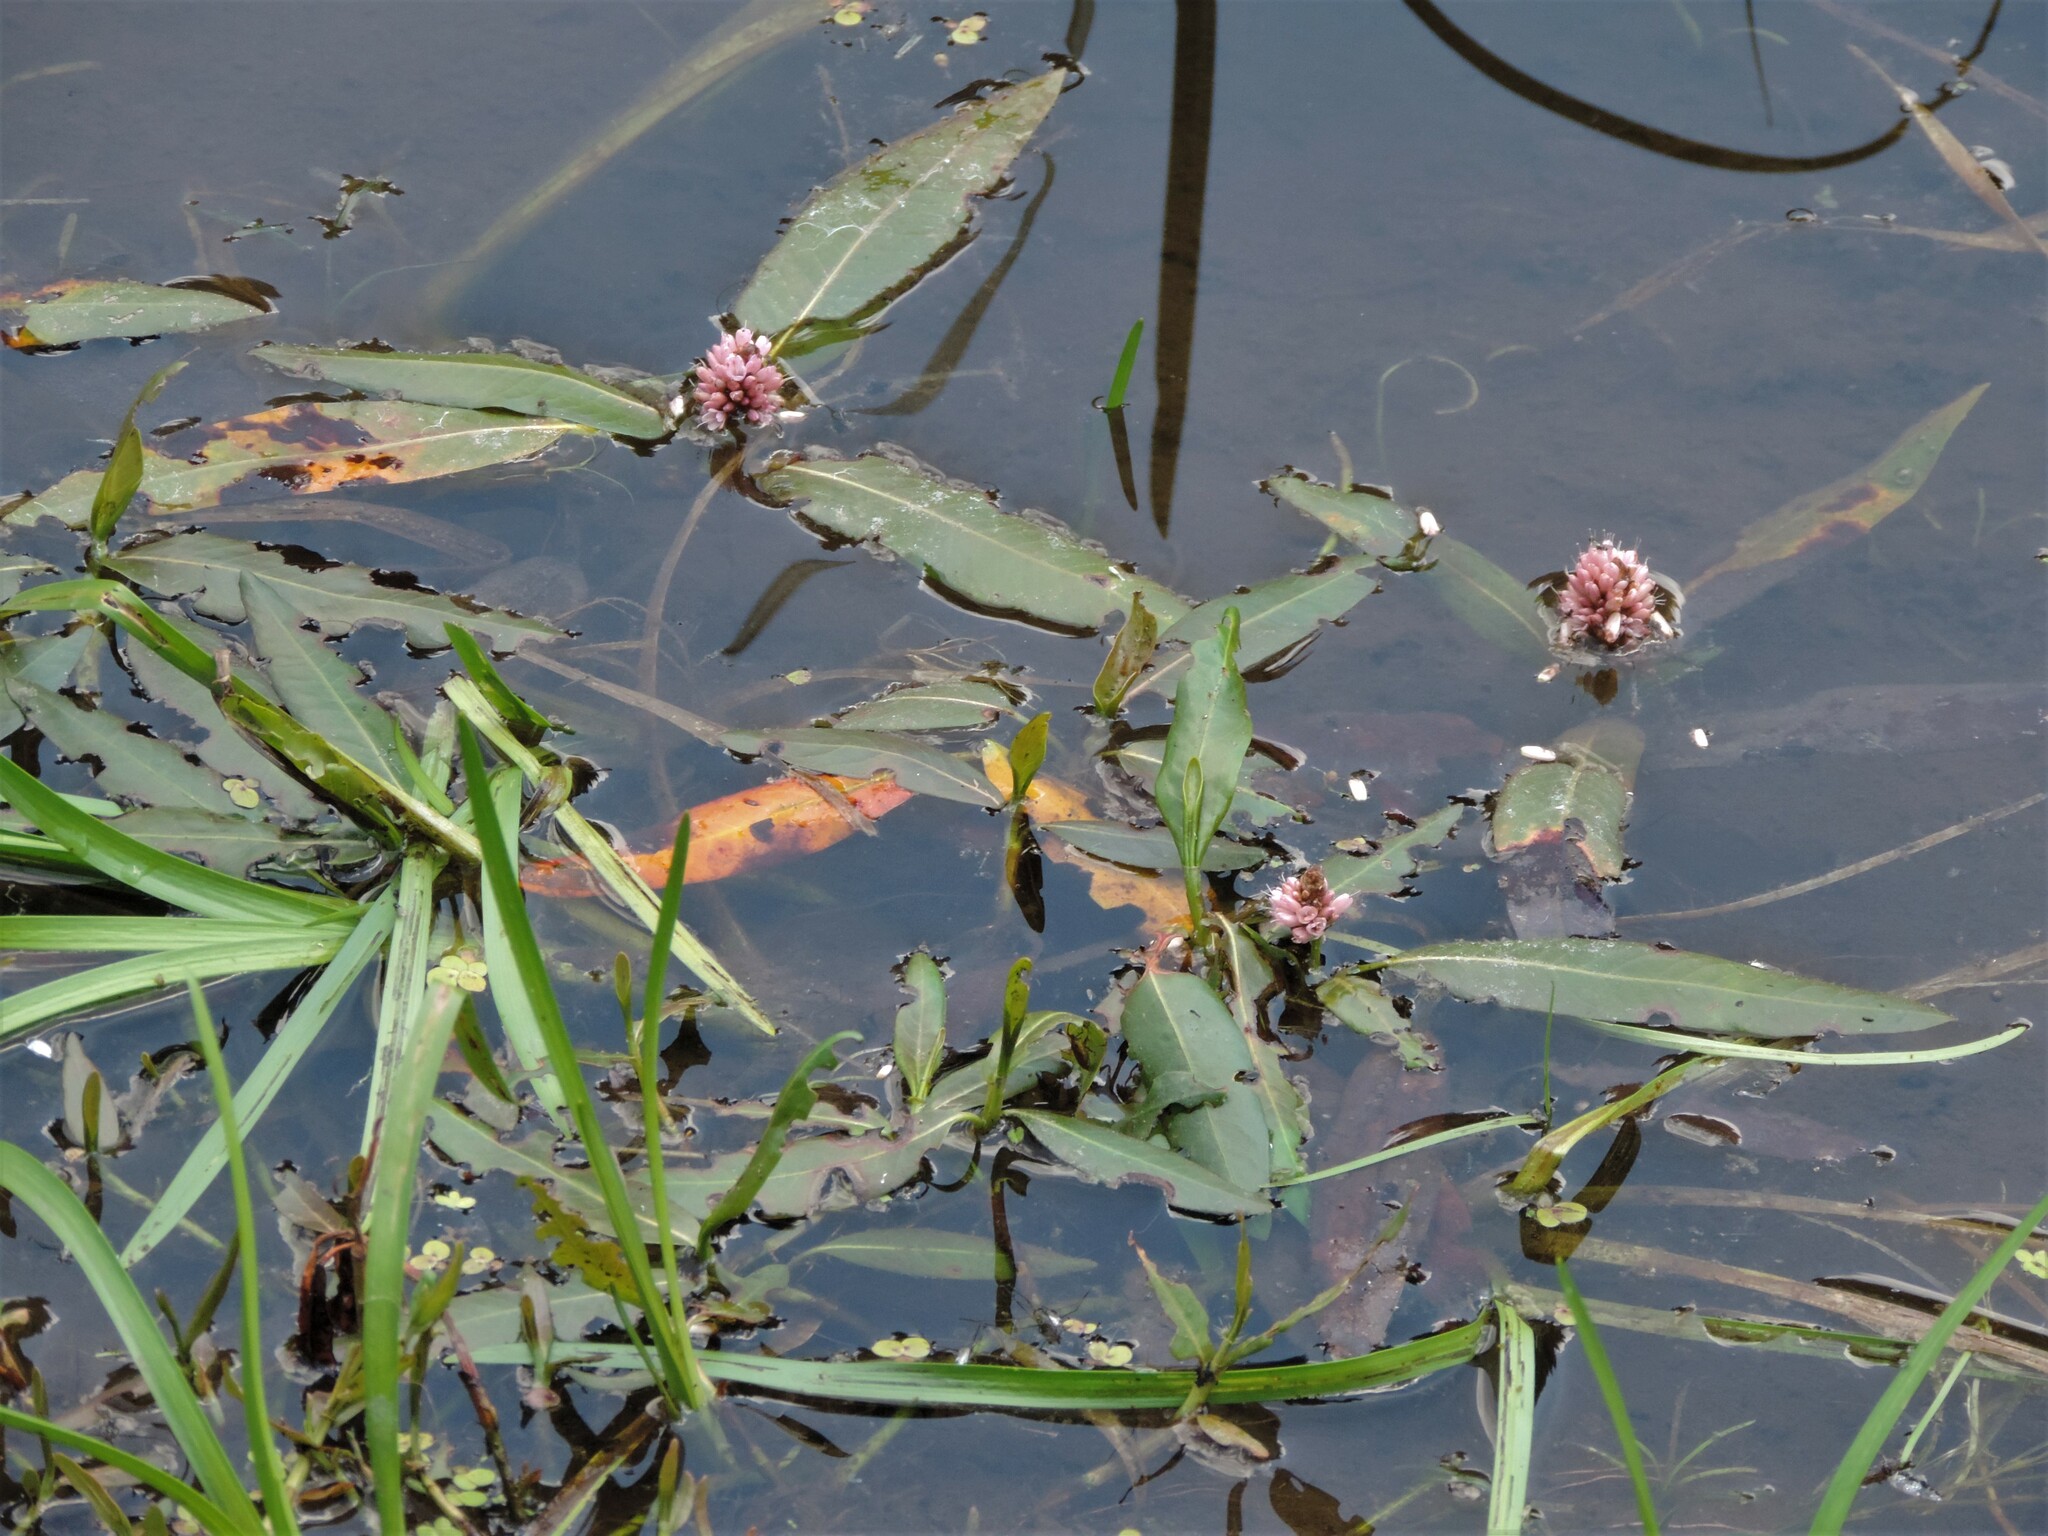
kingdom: Plantae
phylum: Tracheophyta
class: Magnoliopsida
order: Caryophyllales
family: Polygonaceae
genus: Persicaria
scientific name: Persicaria amphibia
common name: Amphibious bistort
